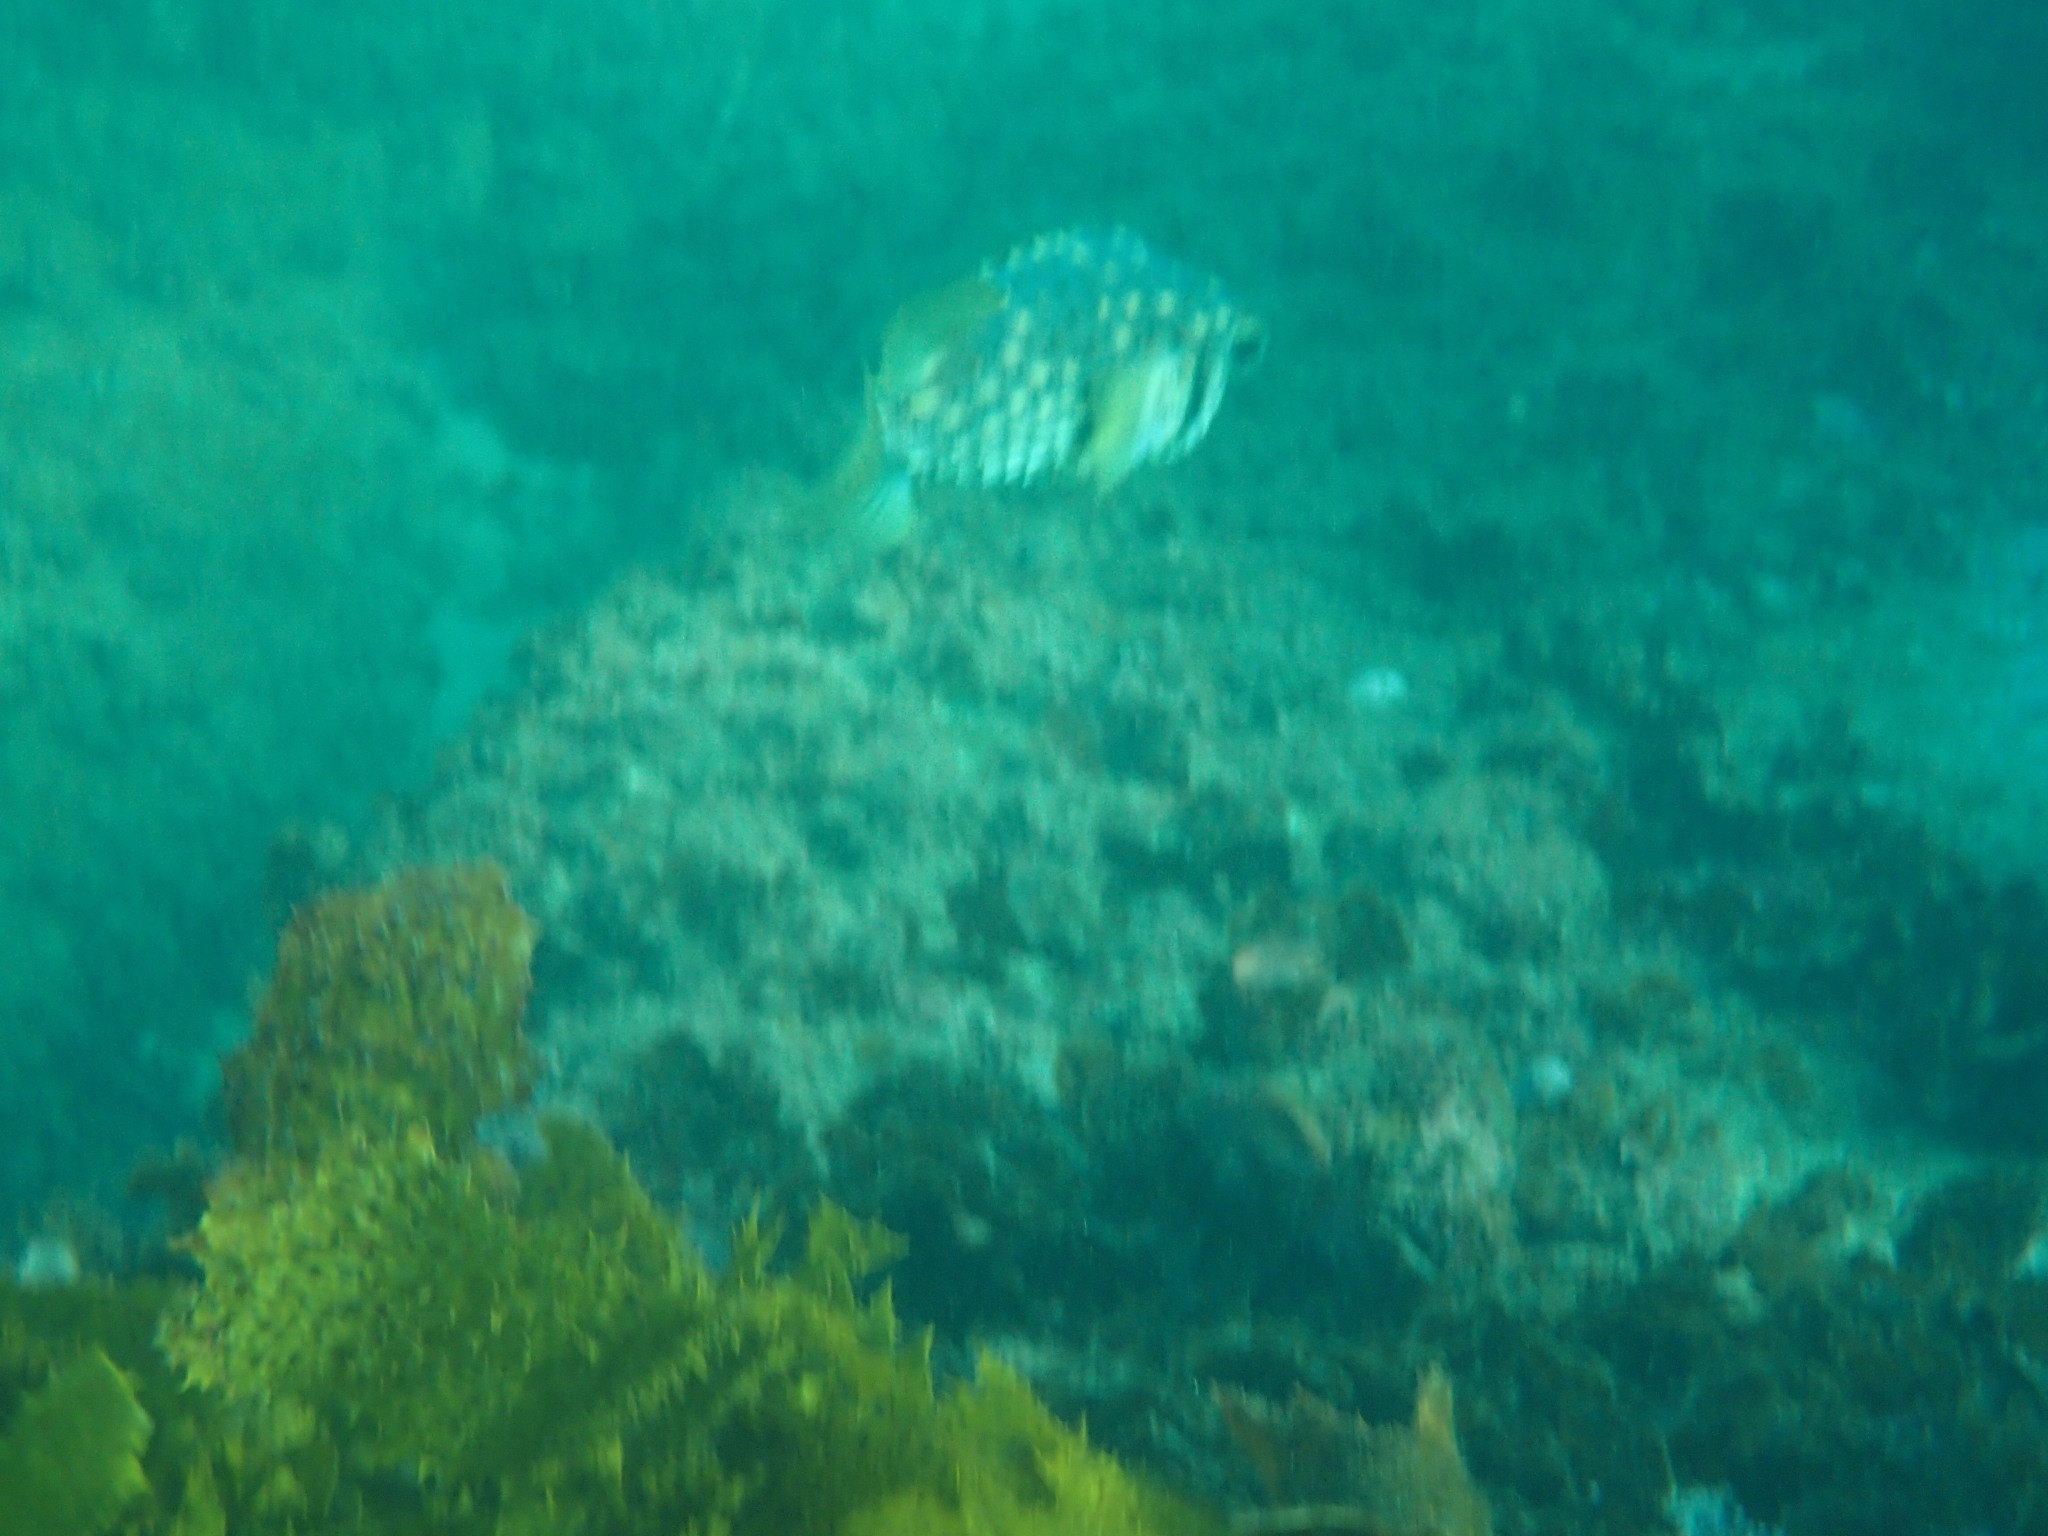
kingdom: Animalia
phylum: Chordata
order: Tetraodontiformes
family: Diodontidae
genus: Dicotylichthys
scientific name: Dicotylichthys punctulatus
